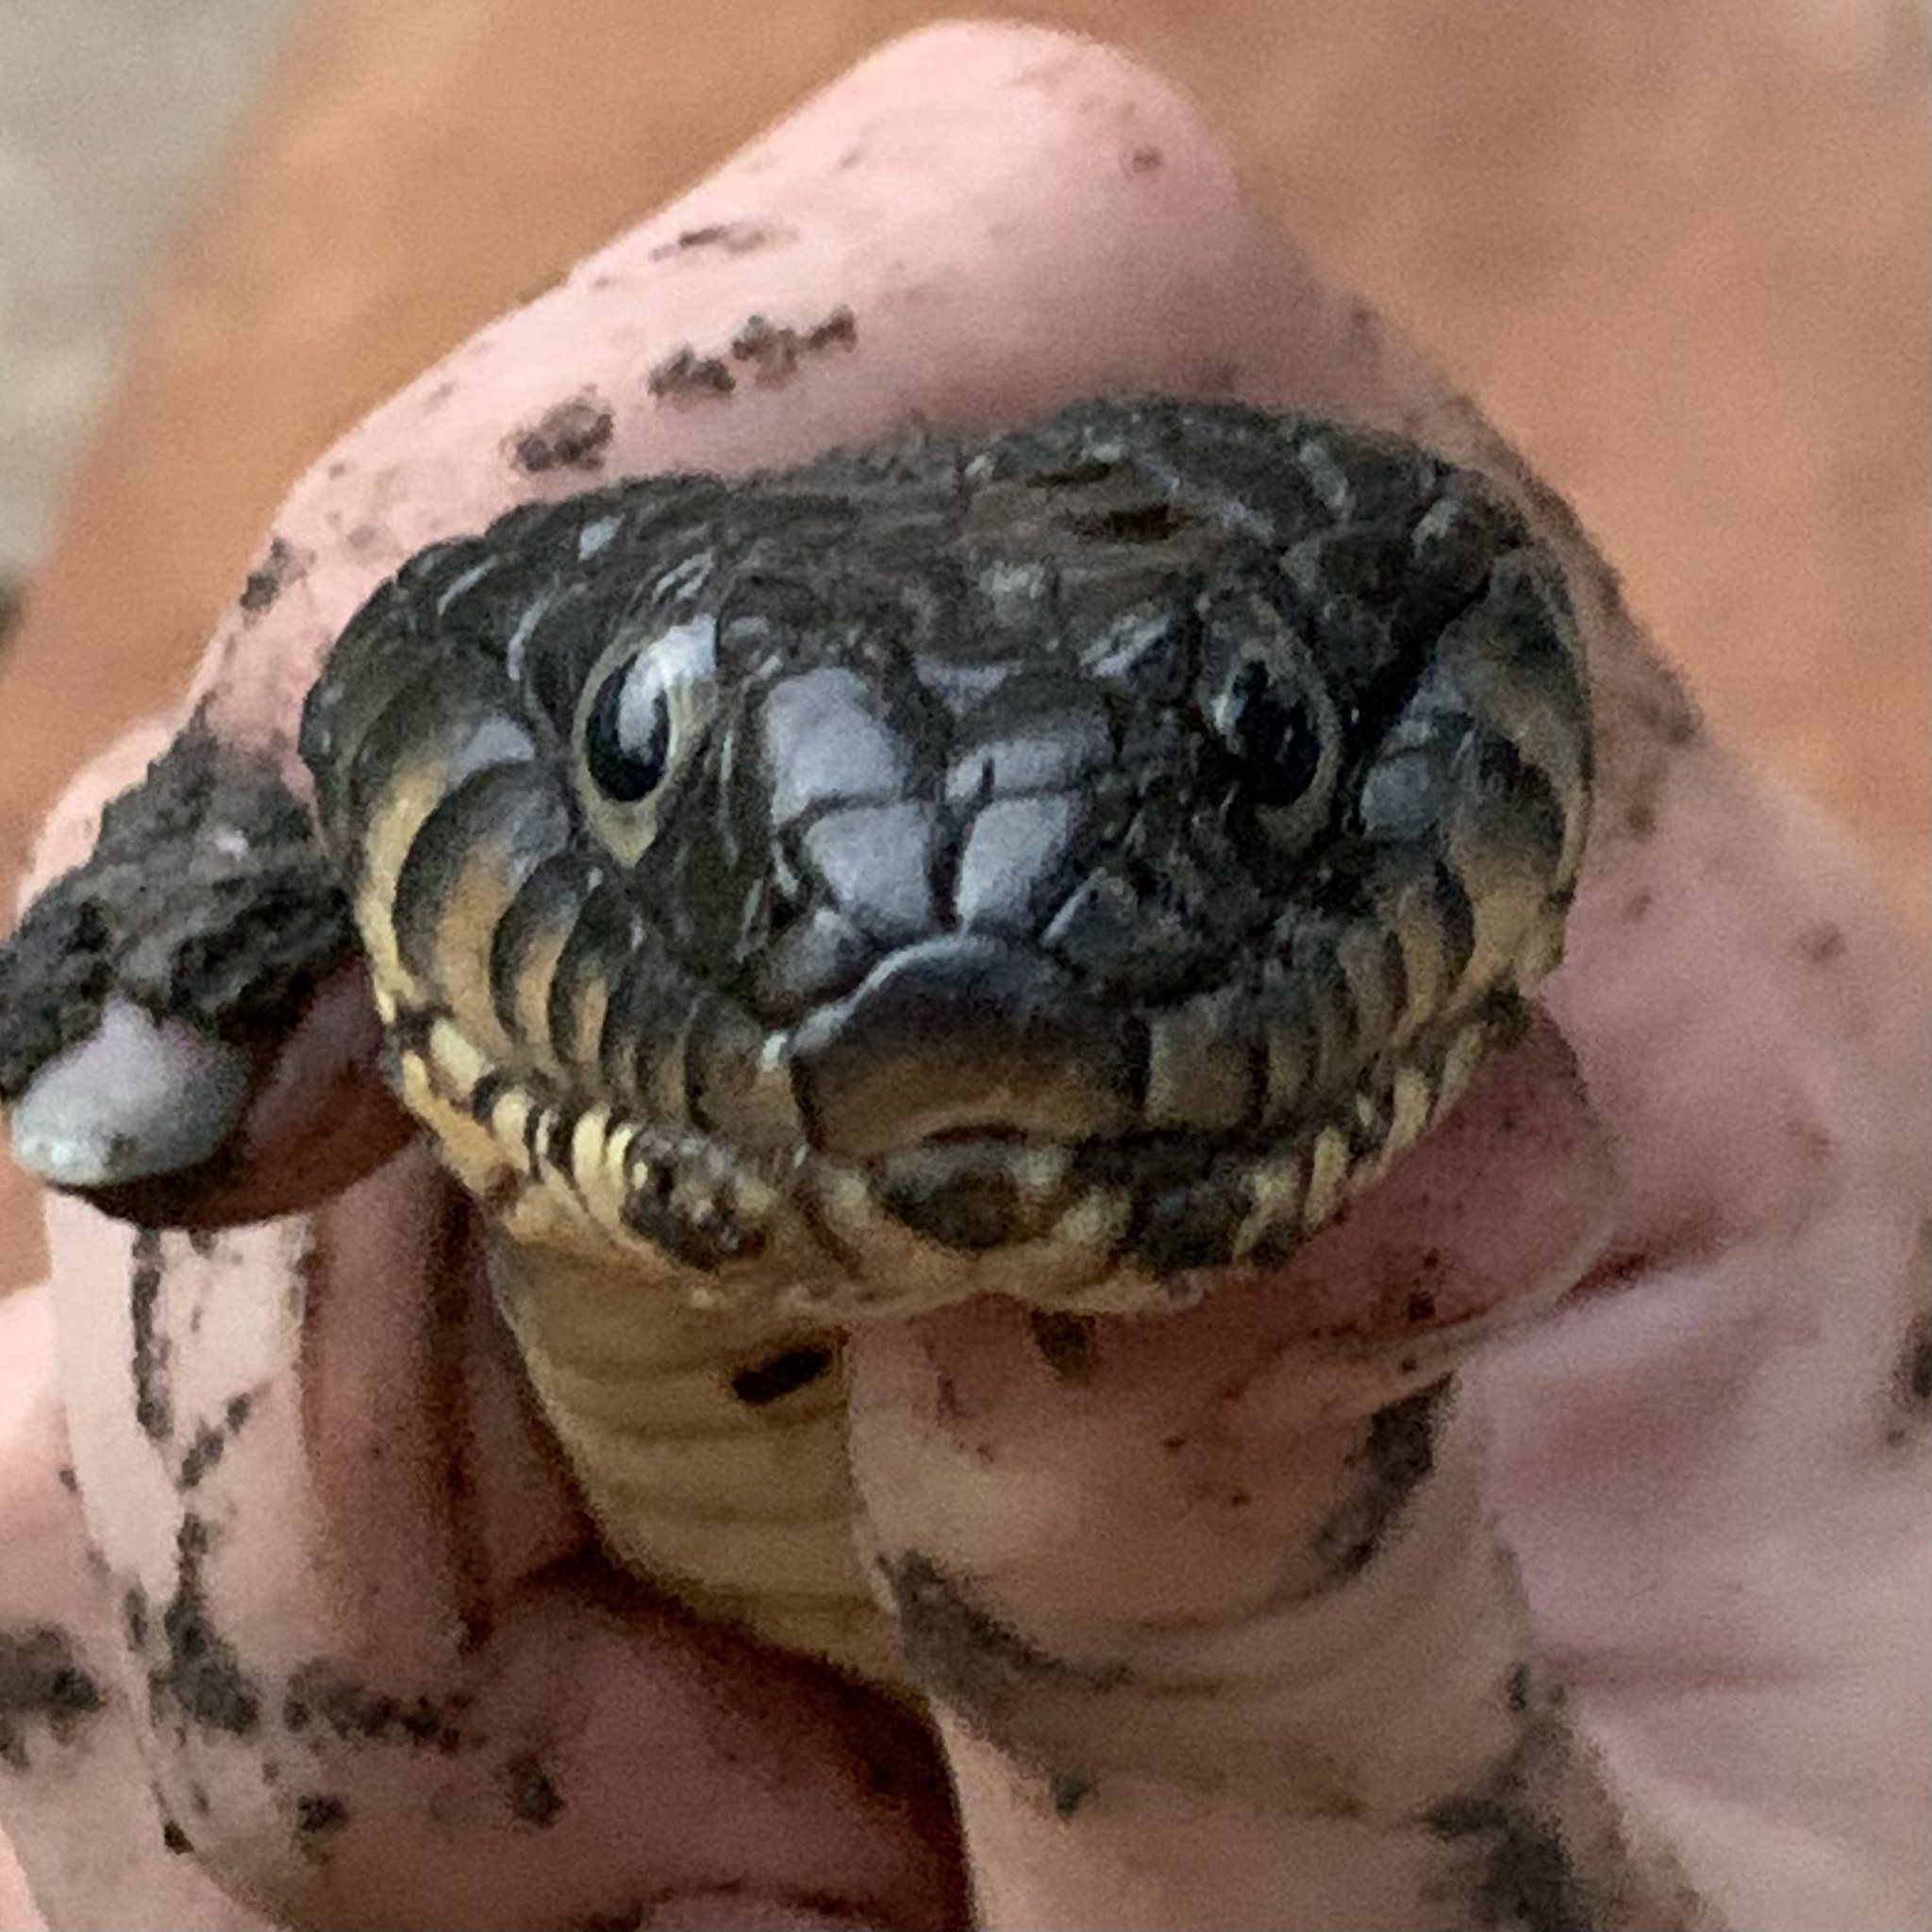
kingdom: Animalia
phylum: Chordata
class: Squamata
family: Colubridae
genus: Nerodia
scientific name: Nerodia erythrogaster
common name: Plainbelly water snake
